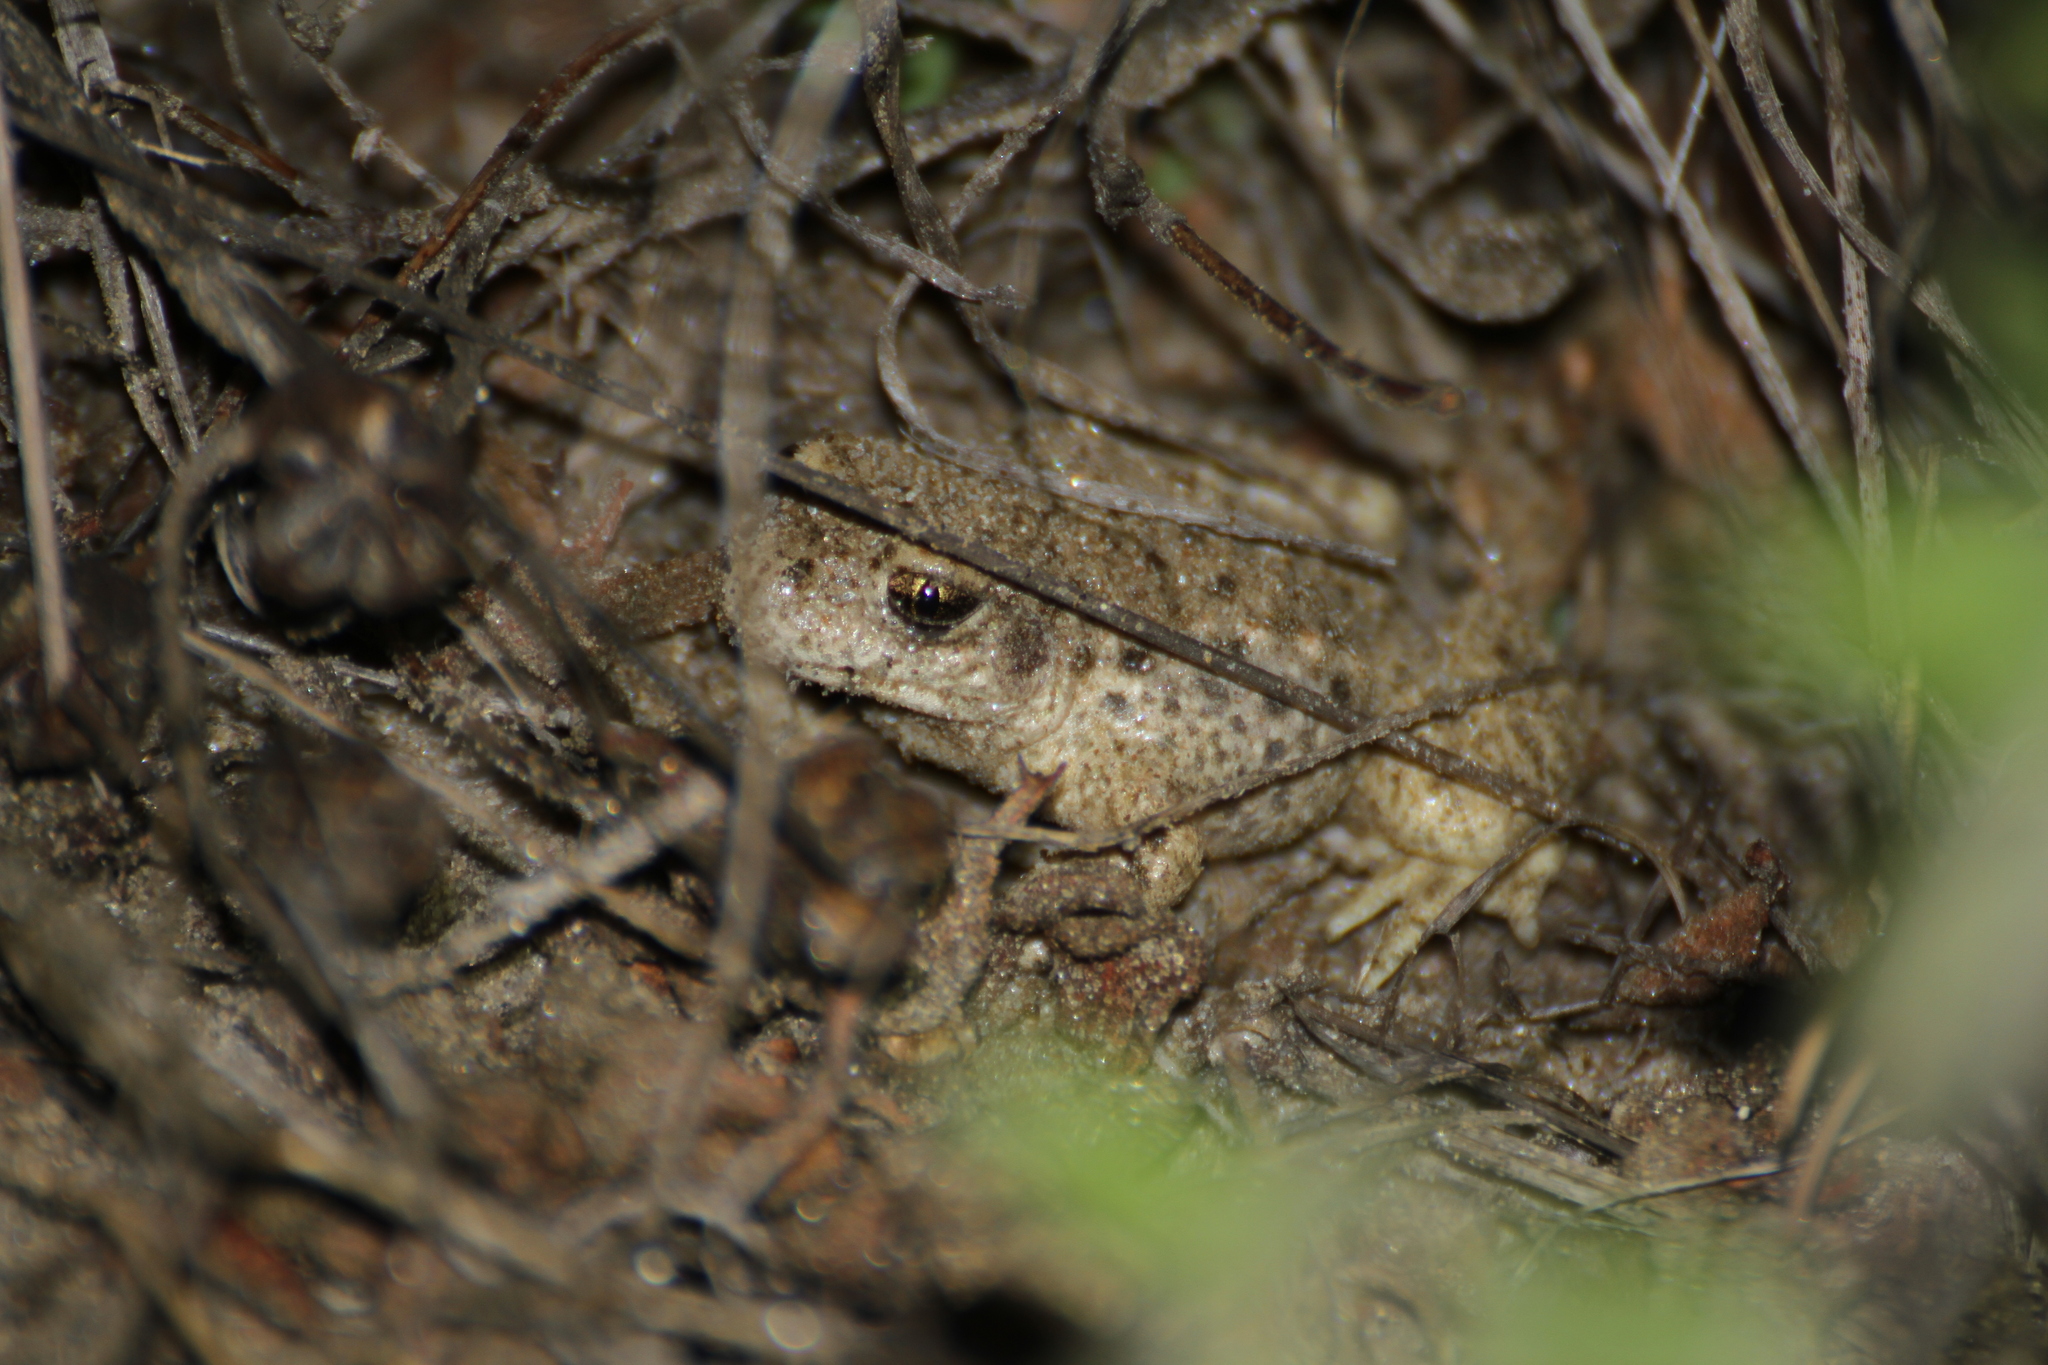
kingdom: Animalia
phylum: Chordata
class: Amphibia
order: Anura
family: Alytidae
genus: Alytes
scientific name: Alytes obstetricans
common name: Midwife toad
